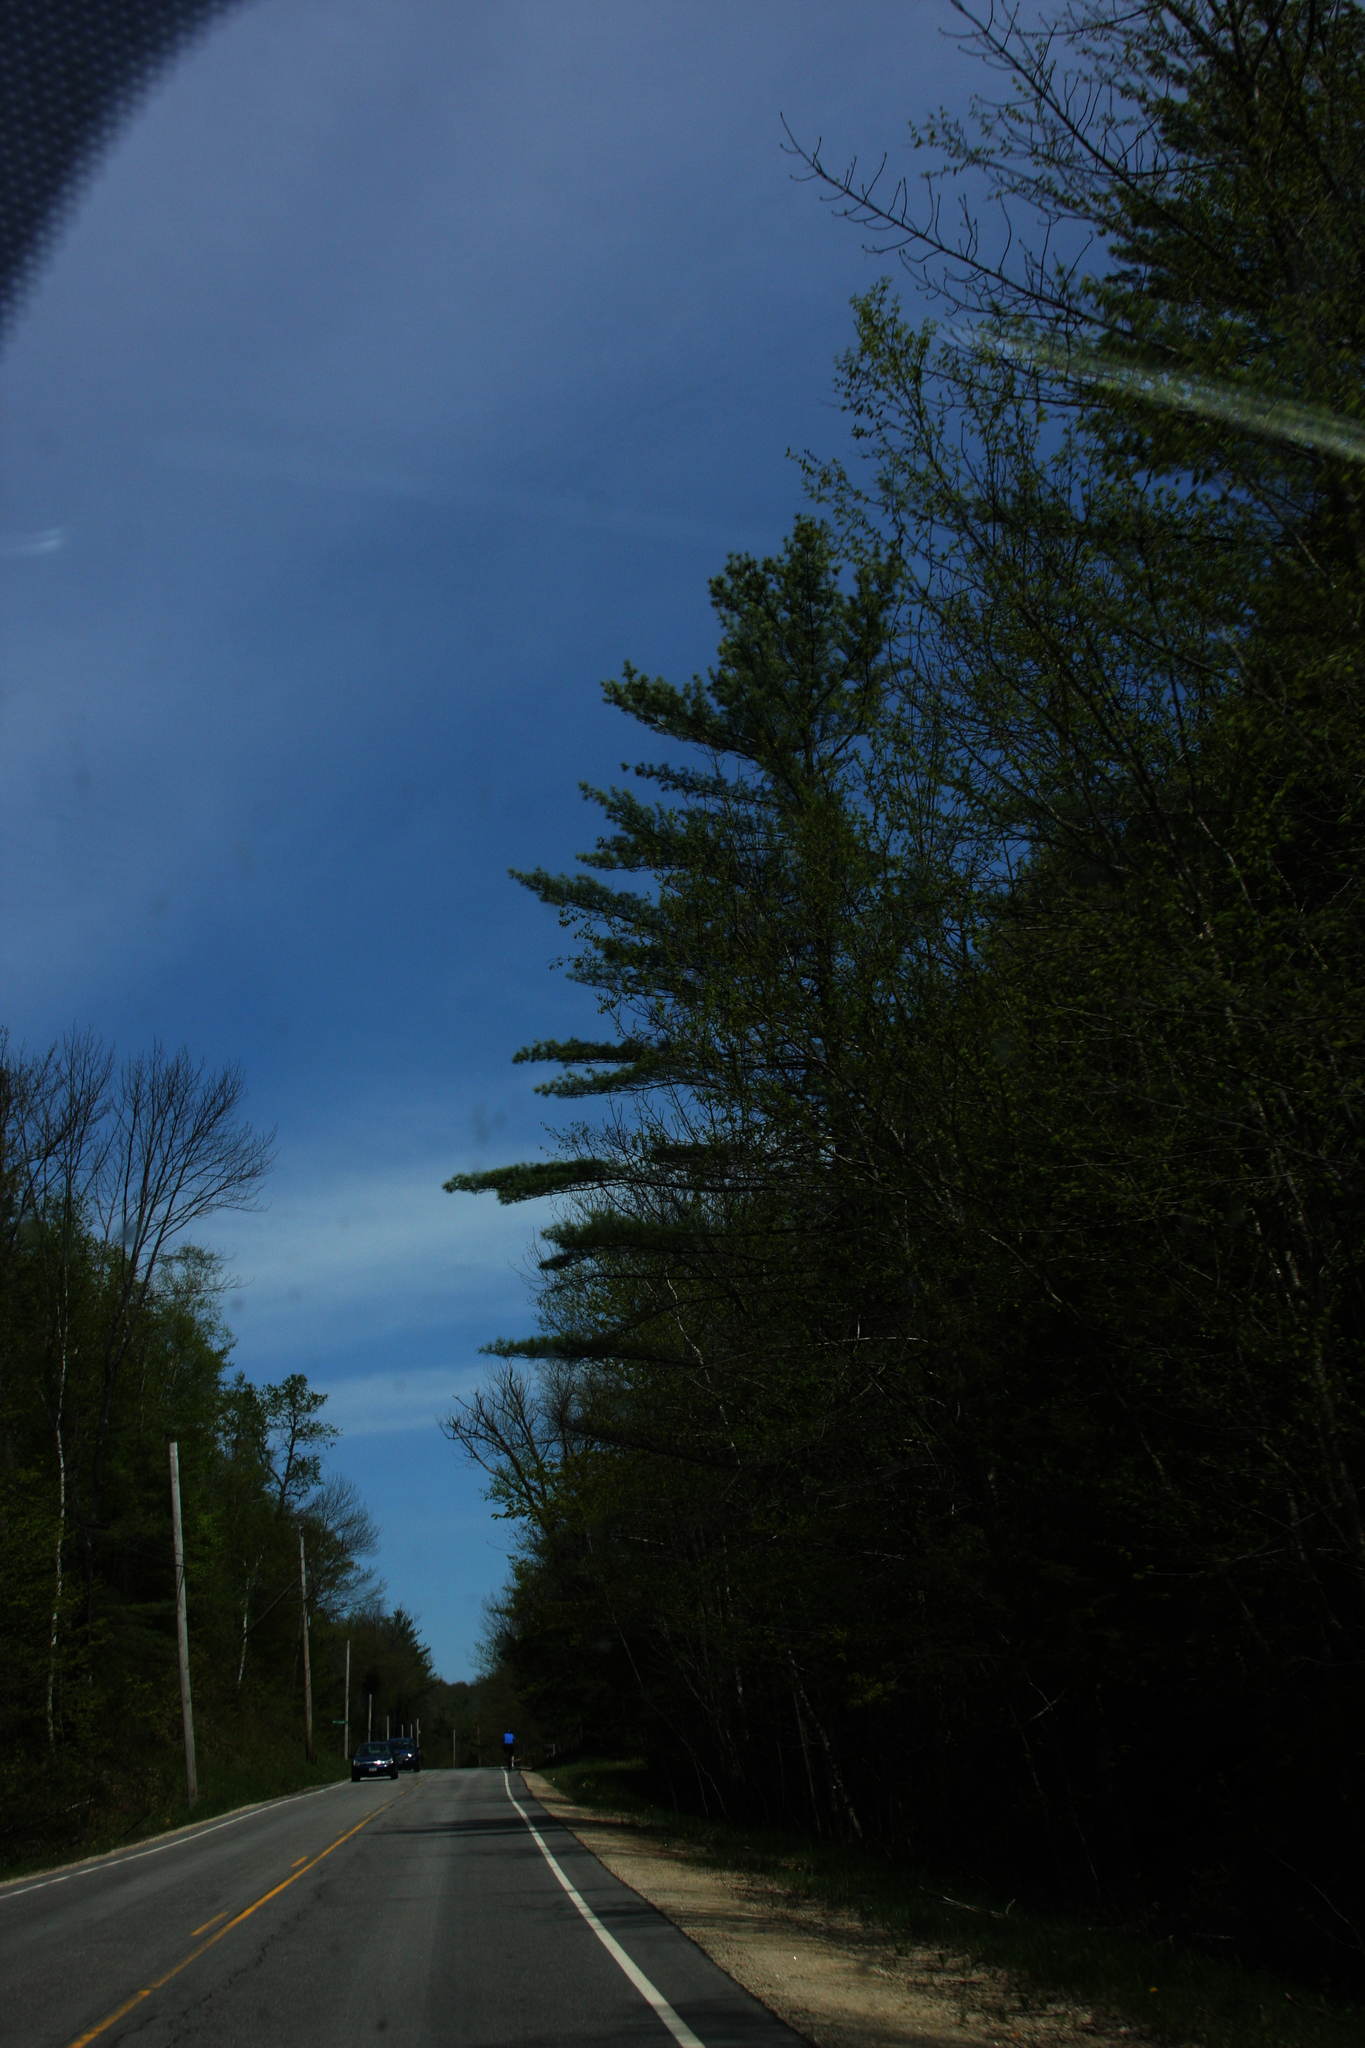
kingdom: Plantae
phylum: Tracheophyta
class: Pinopsida
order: Pinales
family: Pinaceae
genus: Pinus
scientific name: Pinus strobus
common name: Weymouth pine
